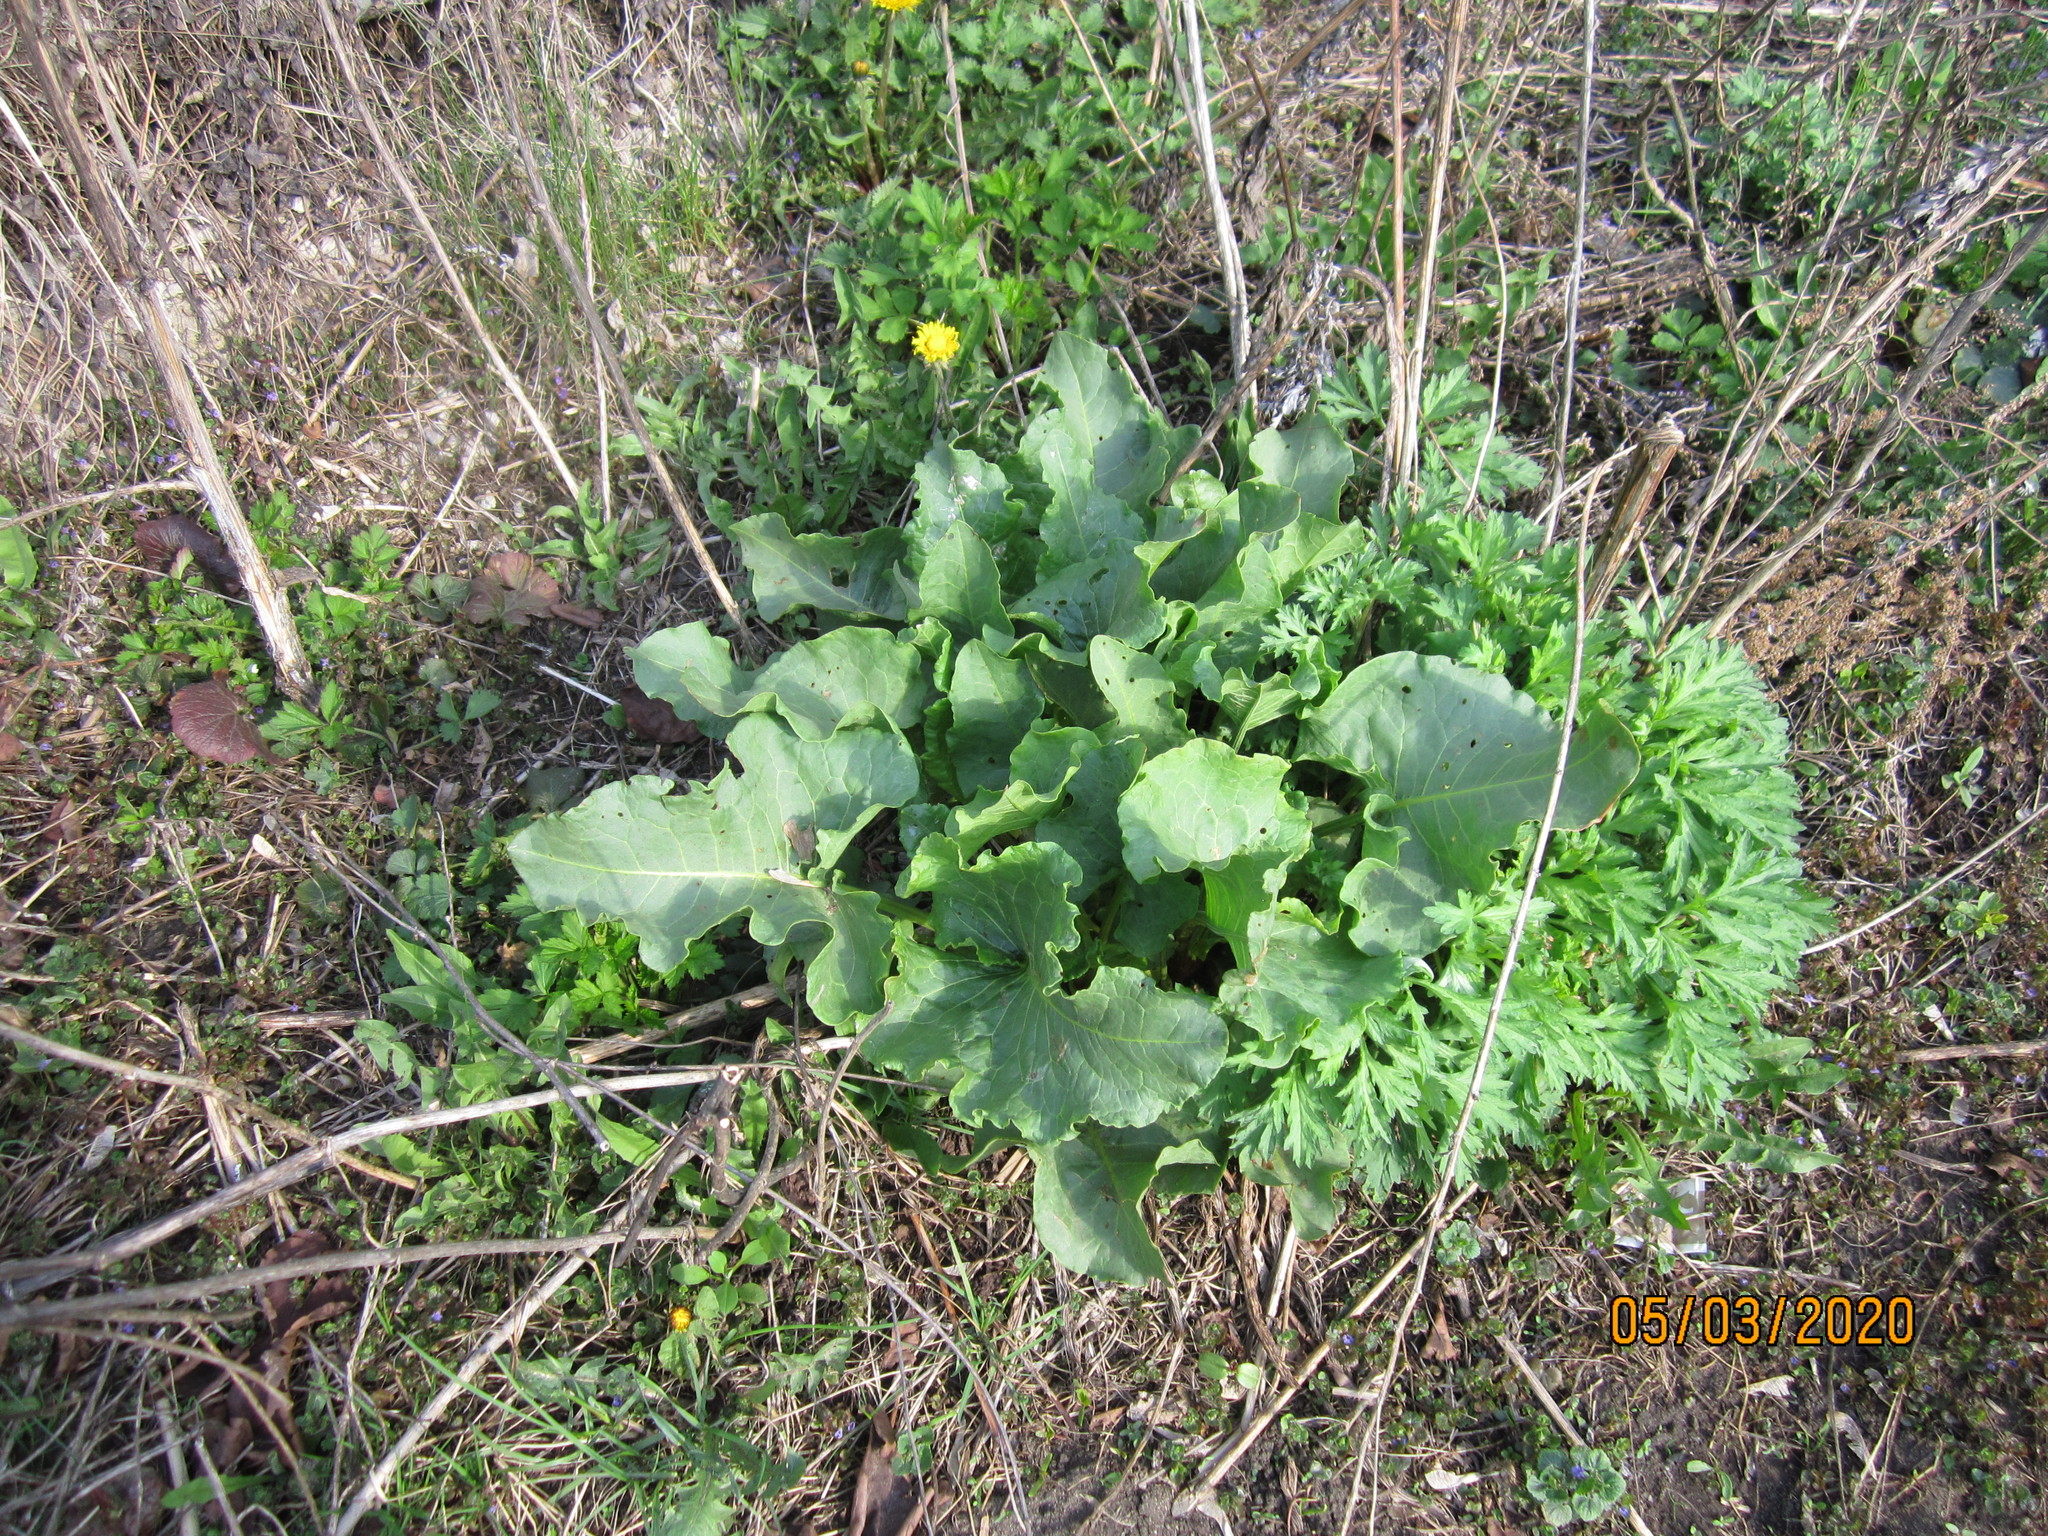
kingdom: Plantae
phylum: Tracheophyta
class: Magnoliopsida
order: Caryophyllales
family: Polygonaceae
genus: Rumex
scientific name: Rumex confertus
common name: Russian dock
